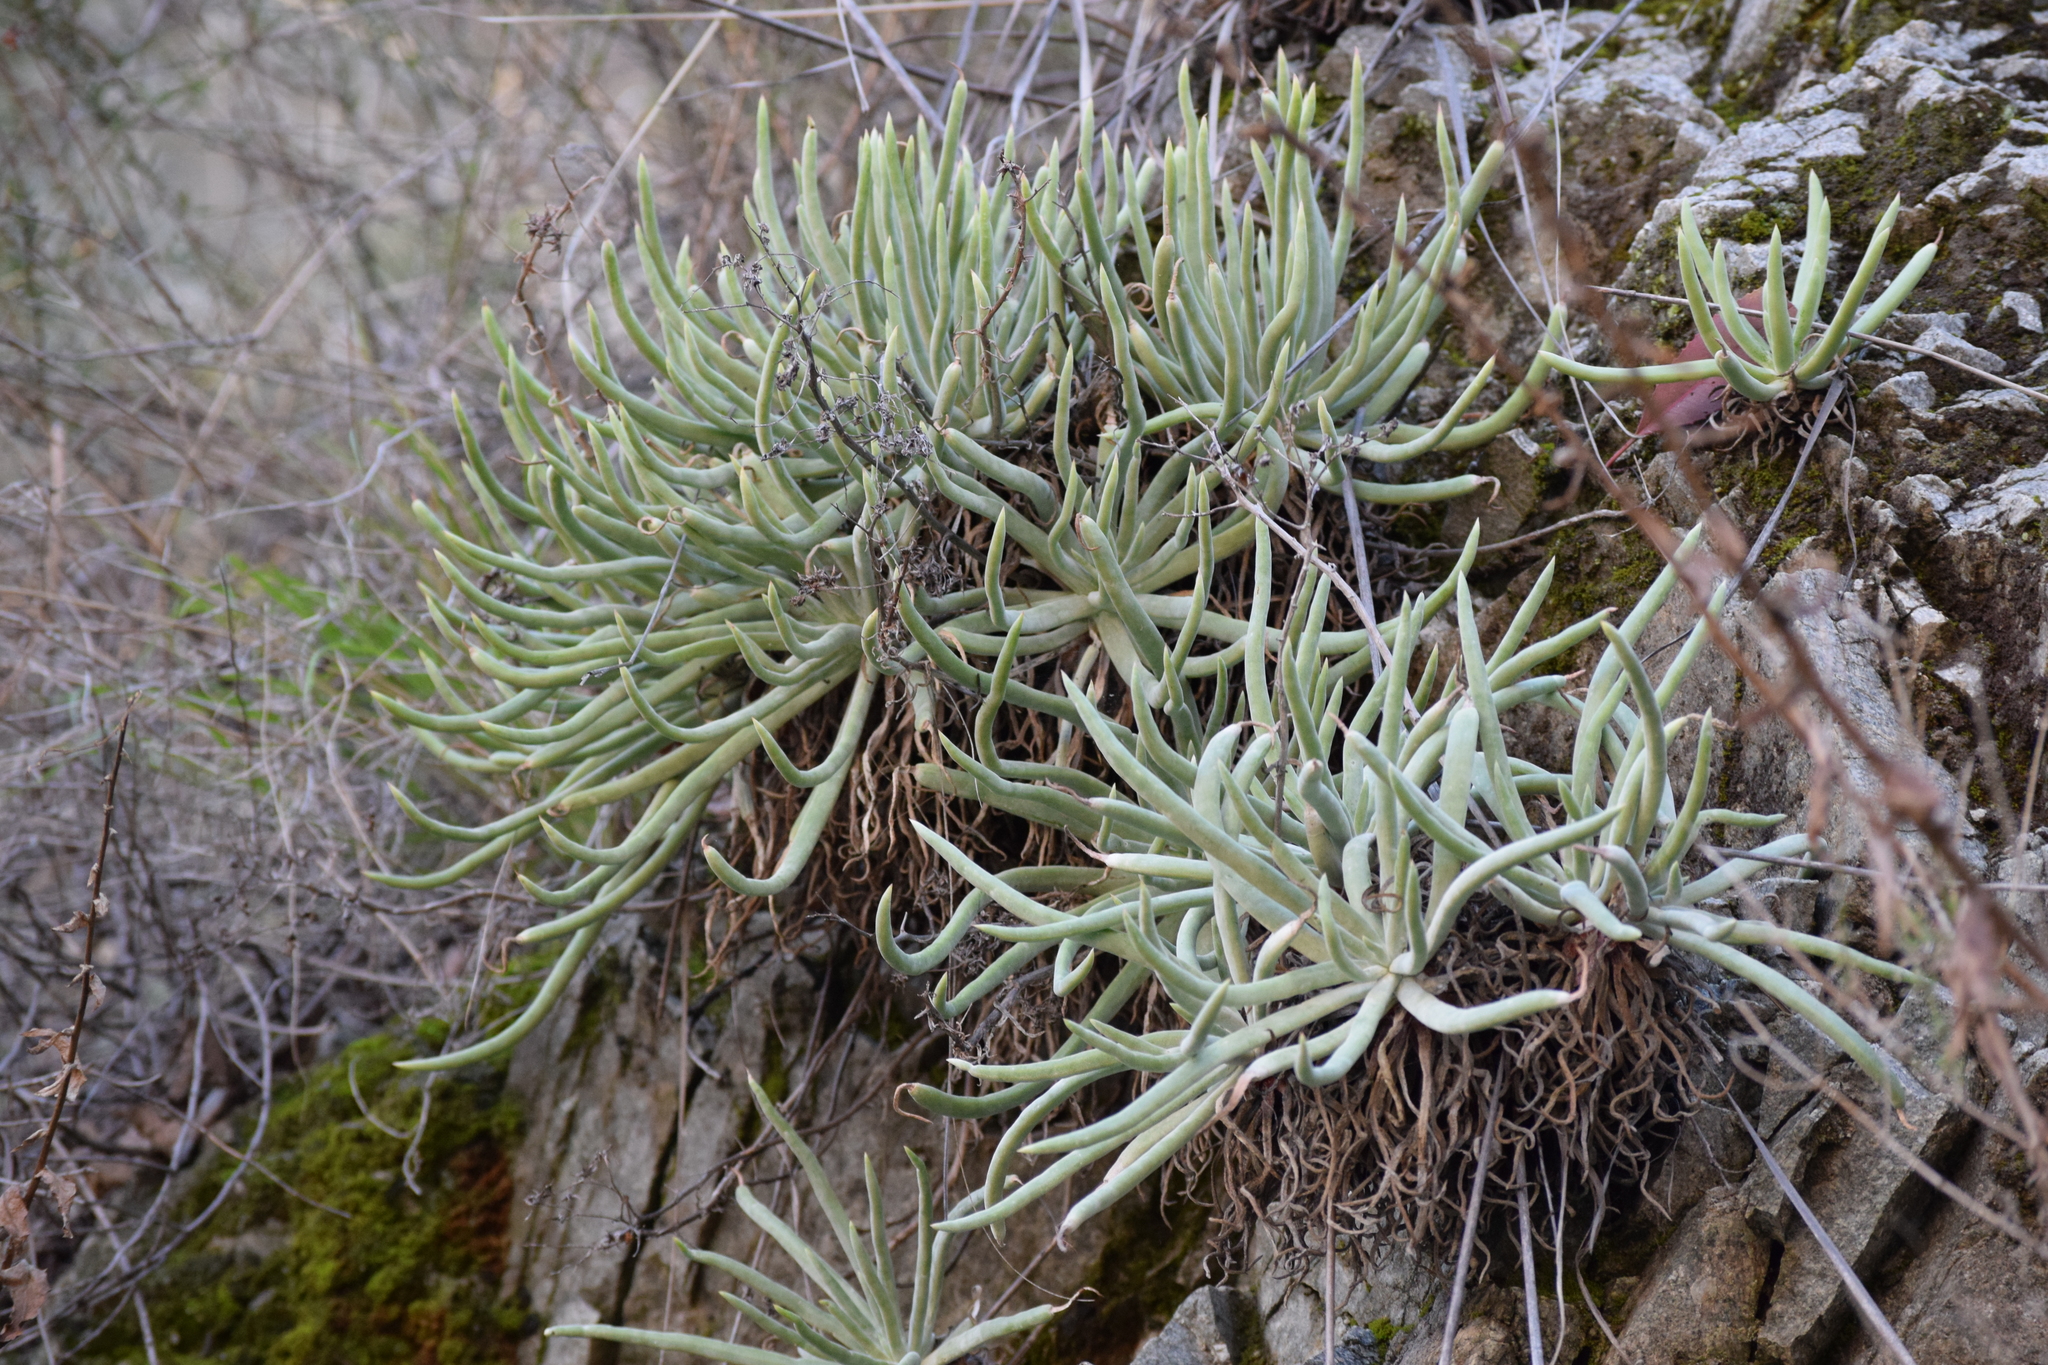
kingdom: Plantae
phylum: Tracheophyta
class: Magnoliopsida
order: Saxifragales
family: Crassulaceae
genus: Dudleya
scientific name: Dudleya densiflora
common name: San gabriel mountains dudleya
